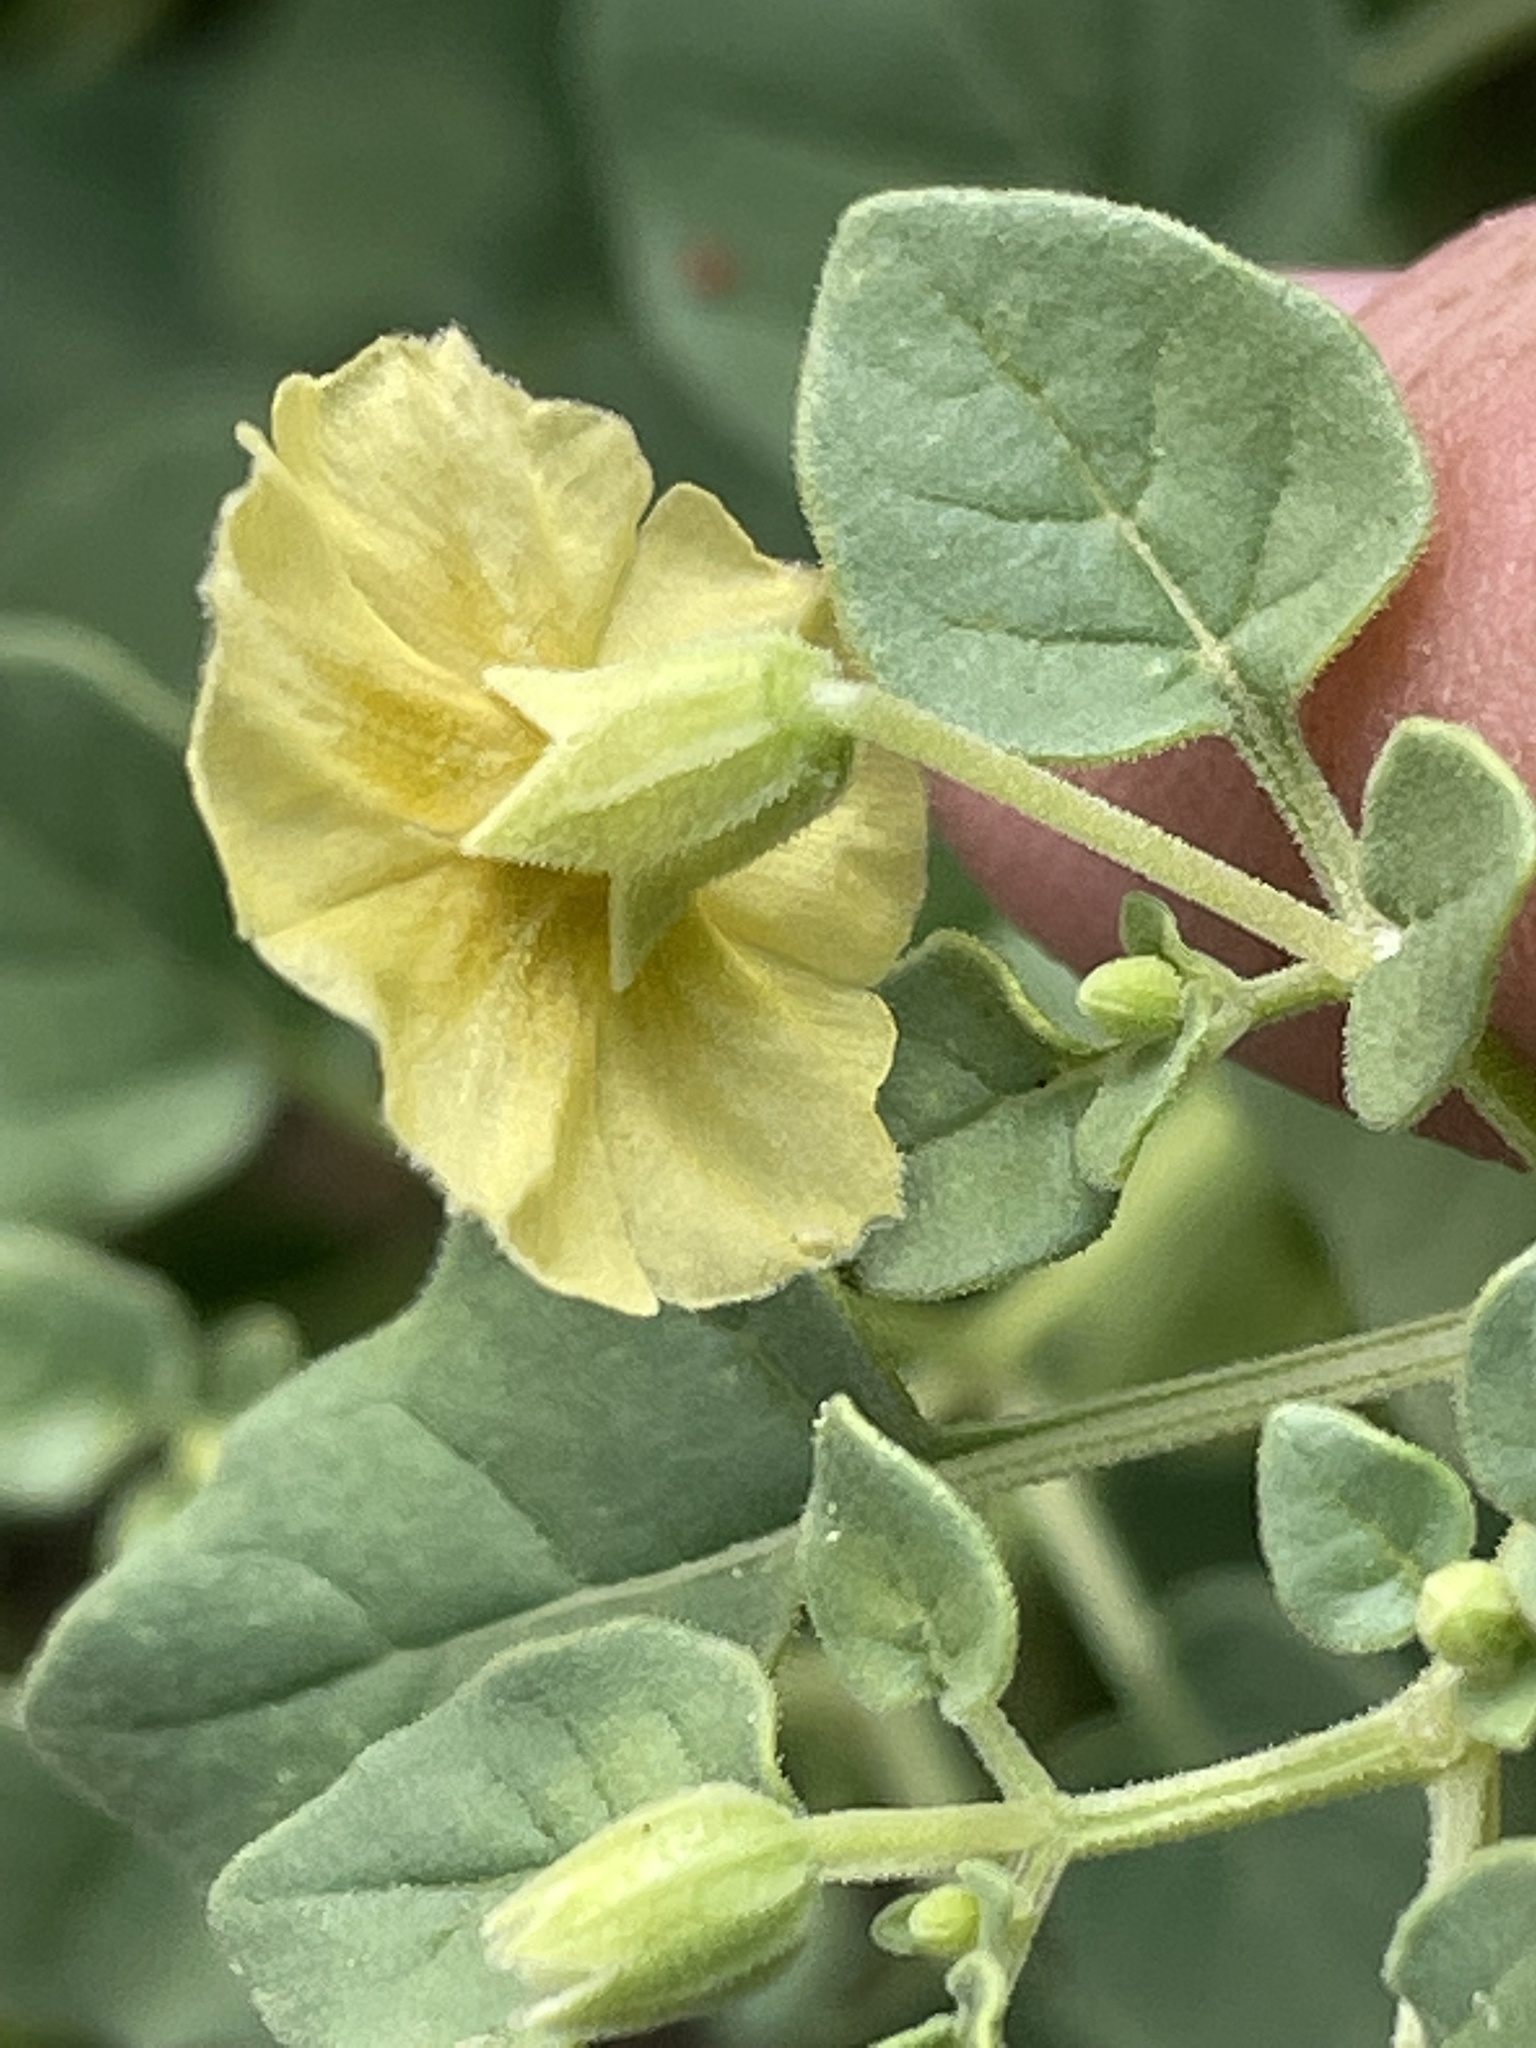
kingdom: Plantae
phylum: Tracheophyta
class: Magnoliopsida
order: Solanales
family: Solanaceae
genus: Physalis
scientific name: Physalis crassifolia
